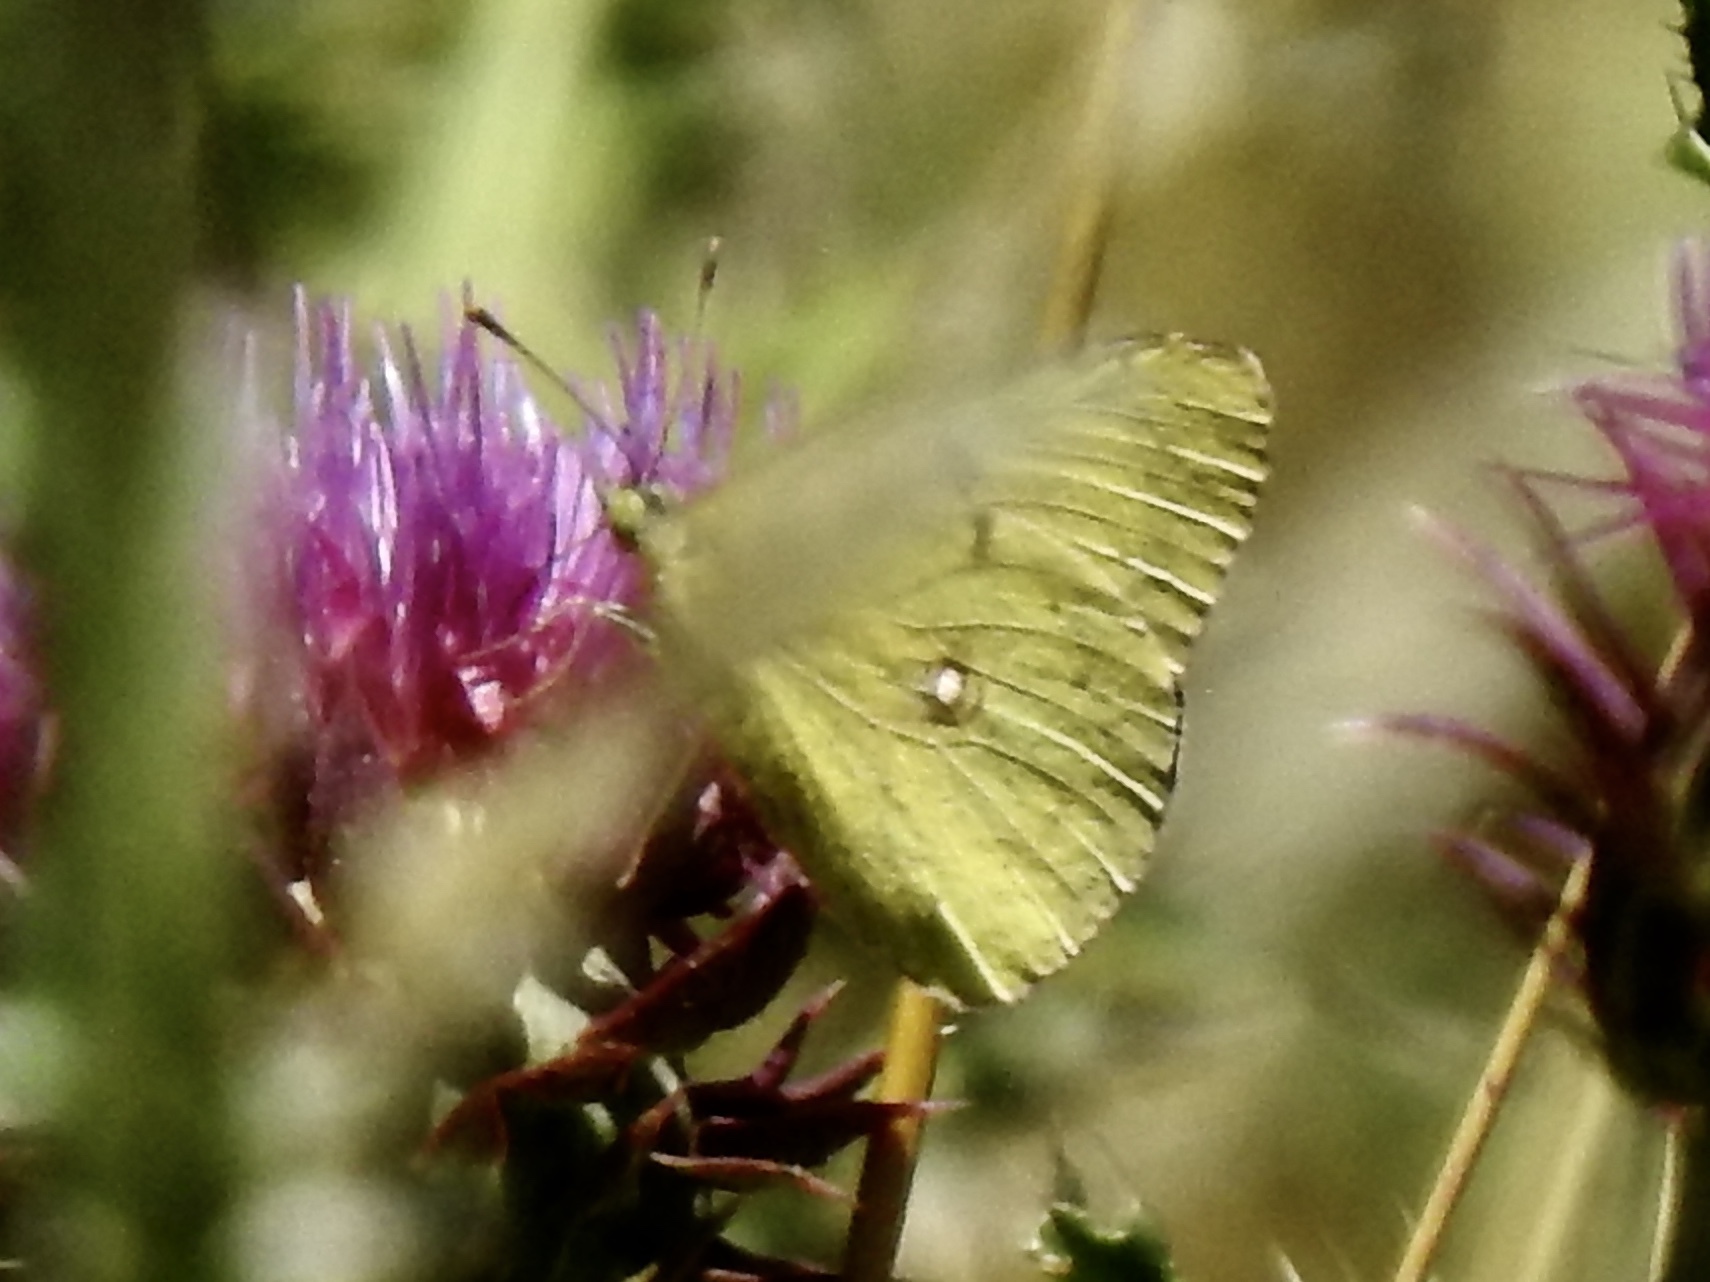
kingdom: Animalia
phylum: Arthropoda
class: Insecta
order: Lepidoptera
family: Pieridae
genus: Colias
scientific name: Colias philodice
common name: Clouded sulphur
